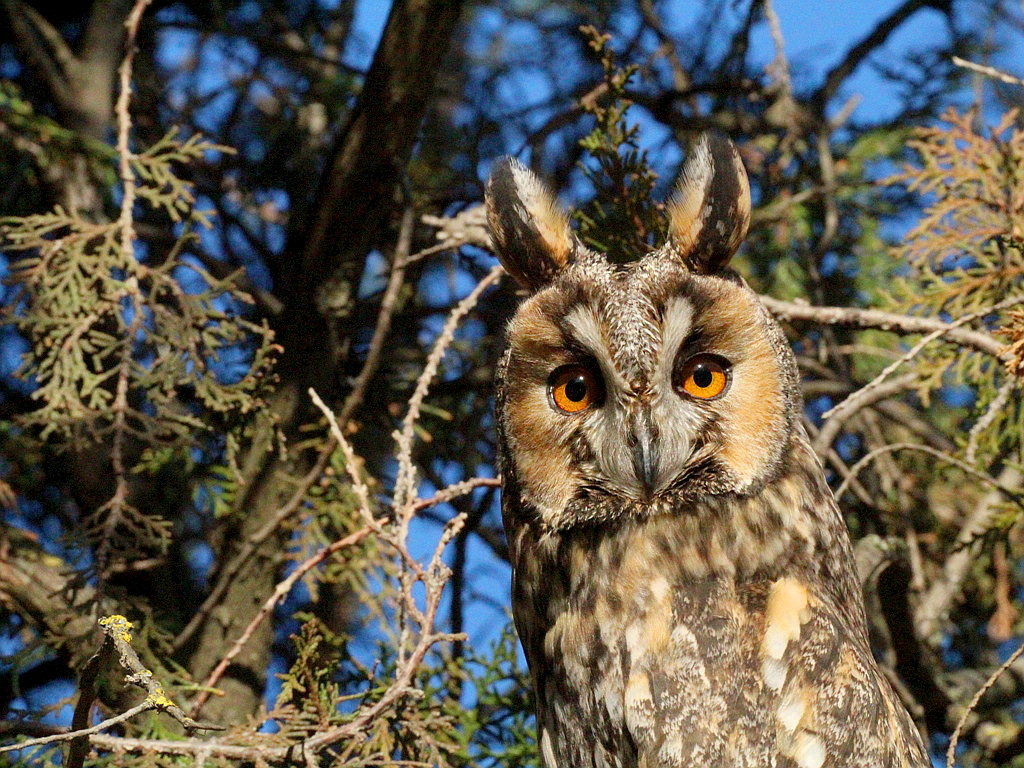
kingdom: Animalia
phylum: Chordata
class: Aves
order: Strigiformes
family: Strigidae
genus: Asio
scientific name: Asio otus
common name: Long-eared owl
